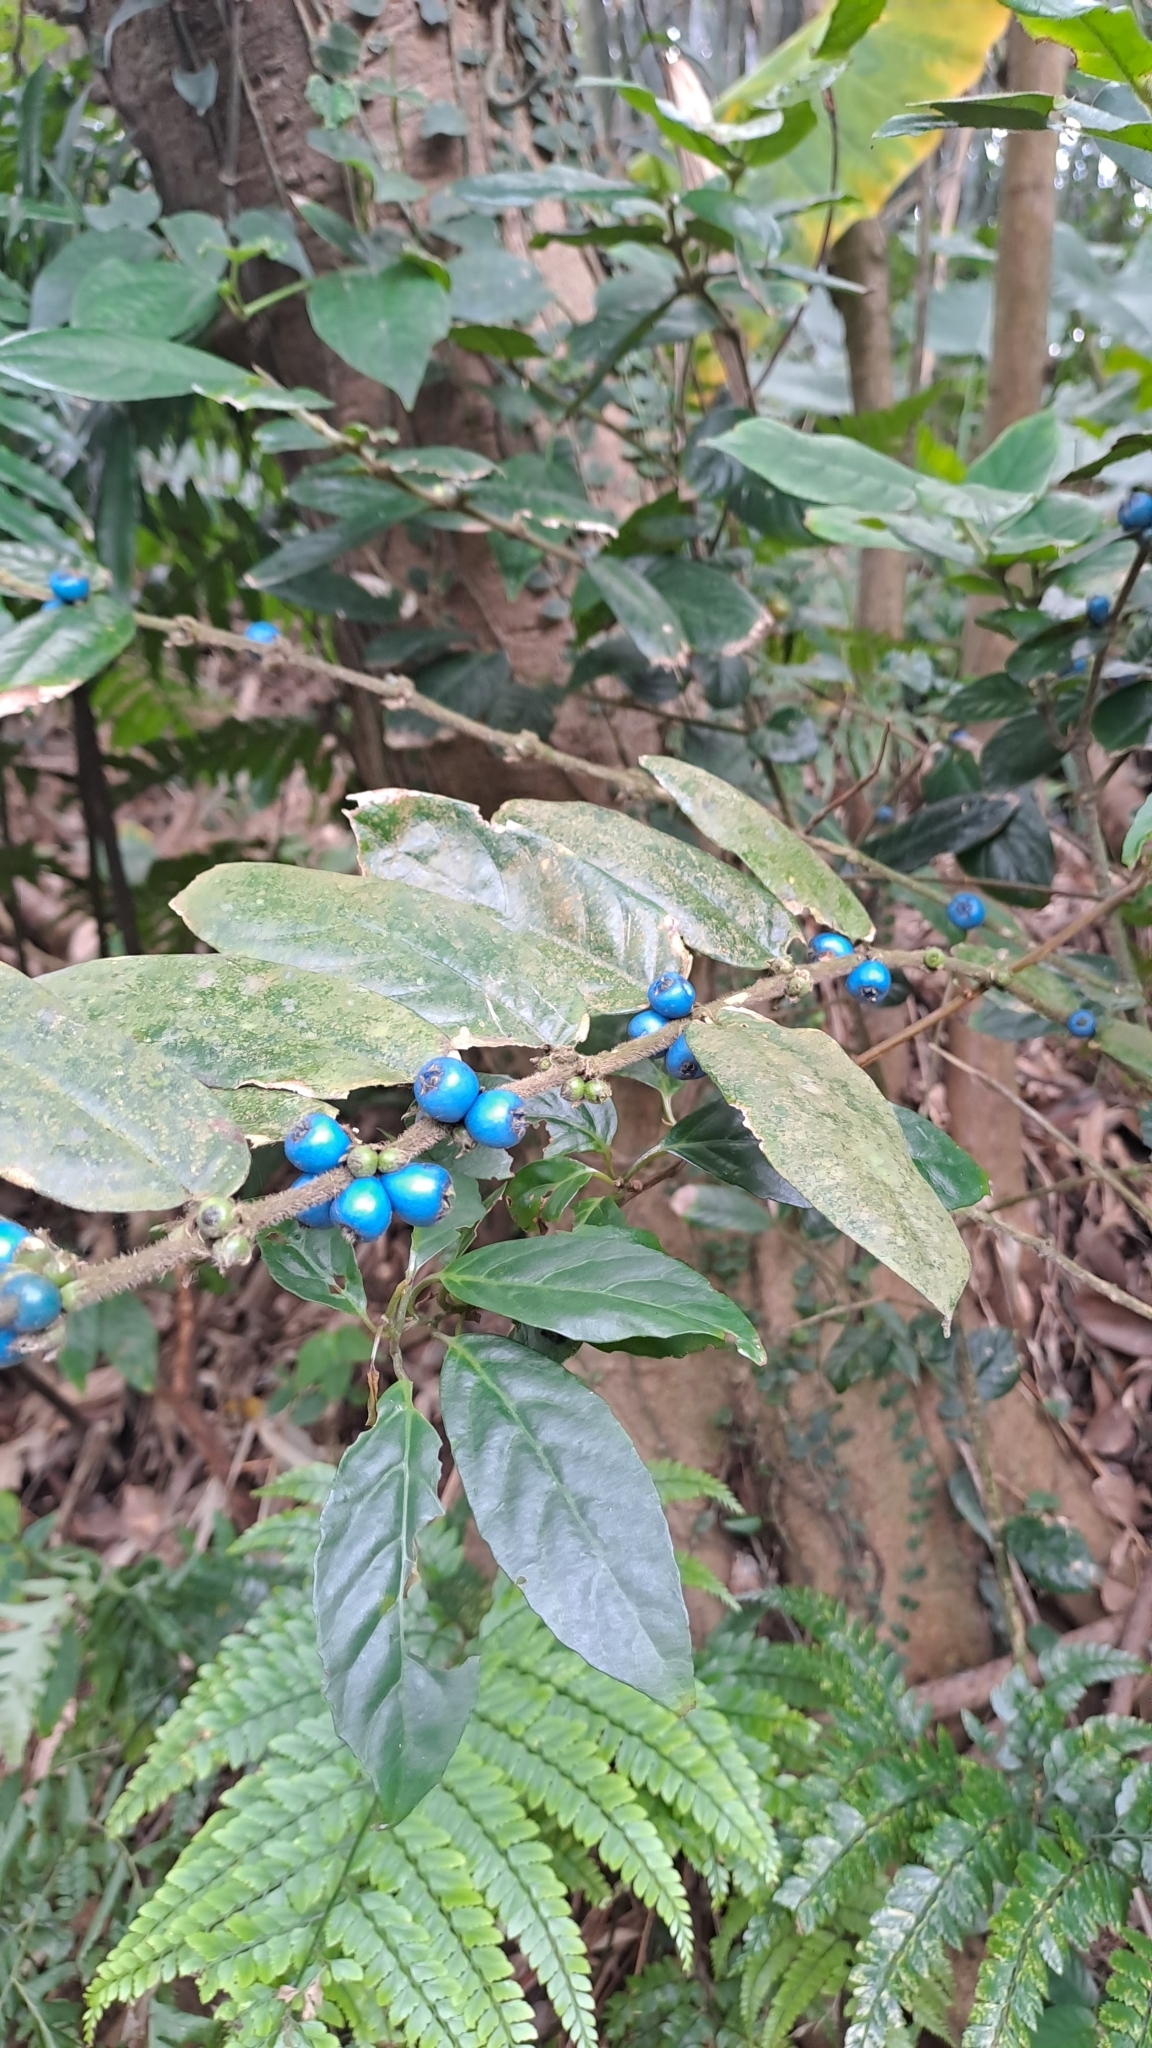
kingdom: Plantae
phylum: Tracheophyta
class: Magnoliopsida
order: Gentianales
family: Rubiaceae
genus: Lasianthus
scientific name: Lasianthus attenuatus
